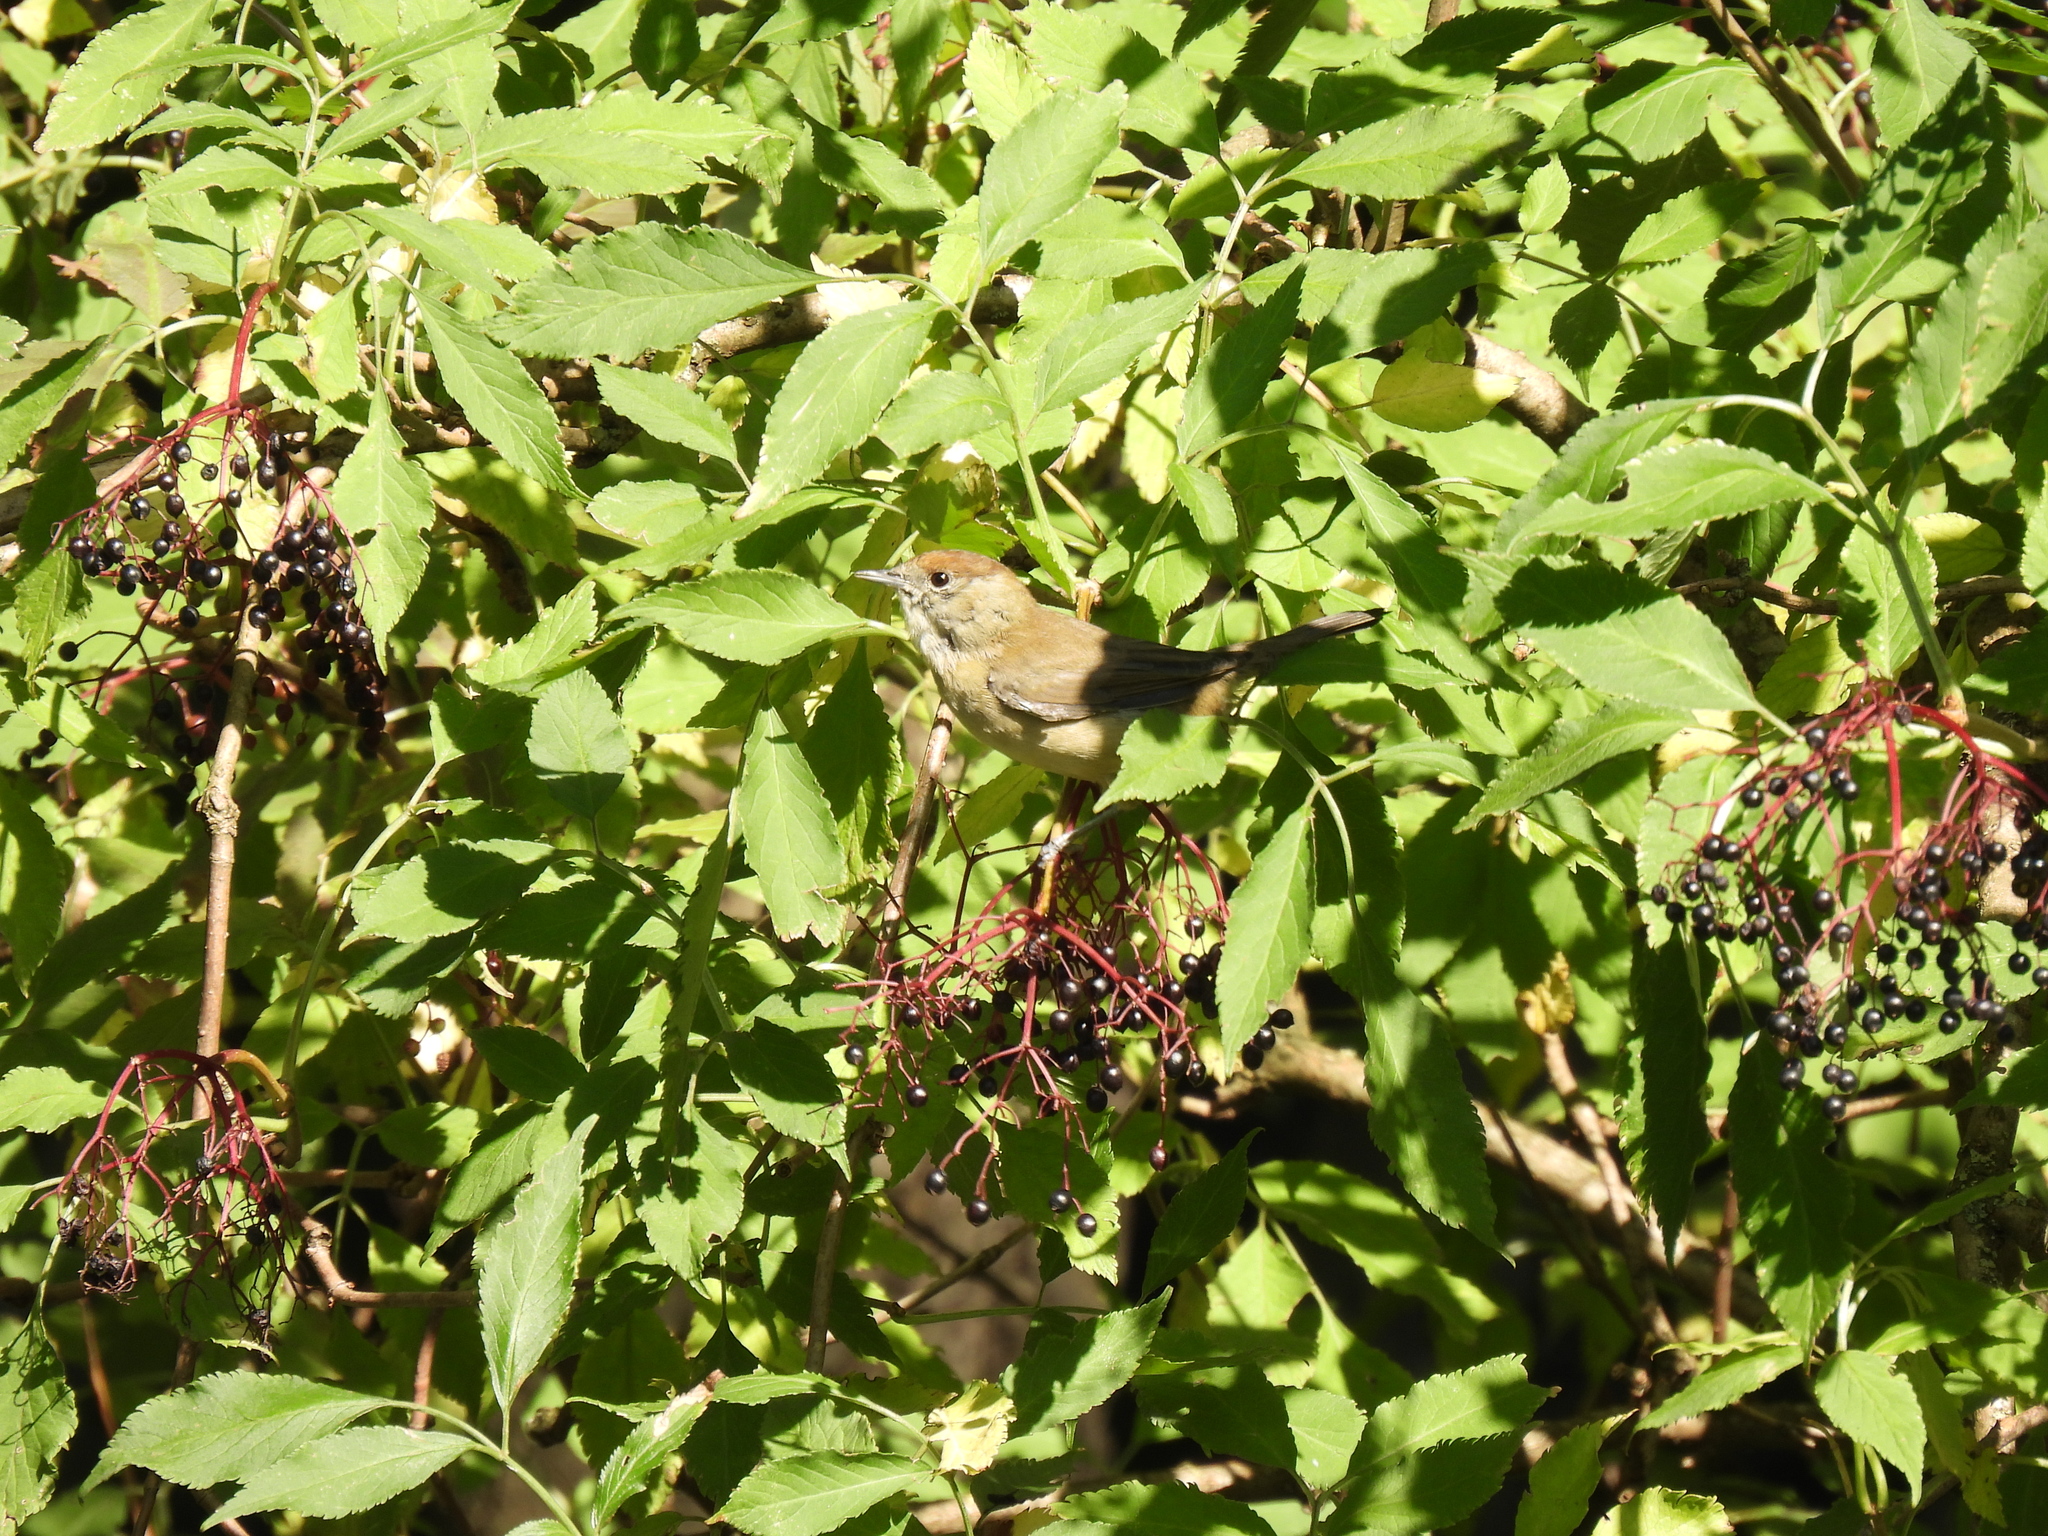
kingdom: Animalia
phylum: Chordata
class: Aves
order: Passeriformes
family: Sylviidae
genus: Sylvia
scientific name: Sylvia atricapilla
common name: Eurasian blackcap
